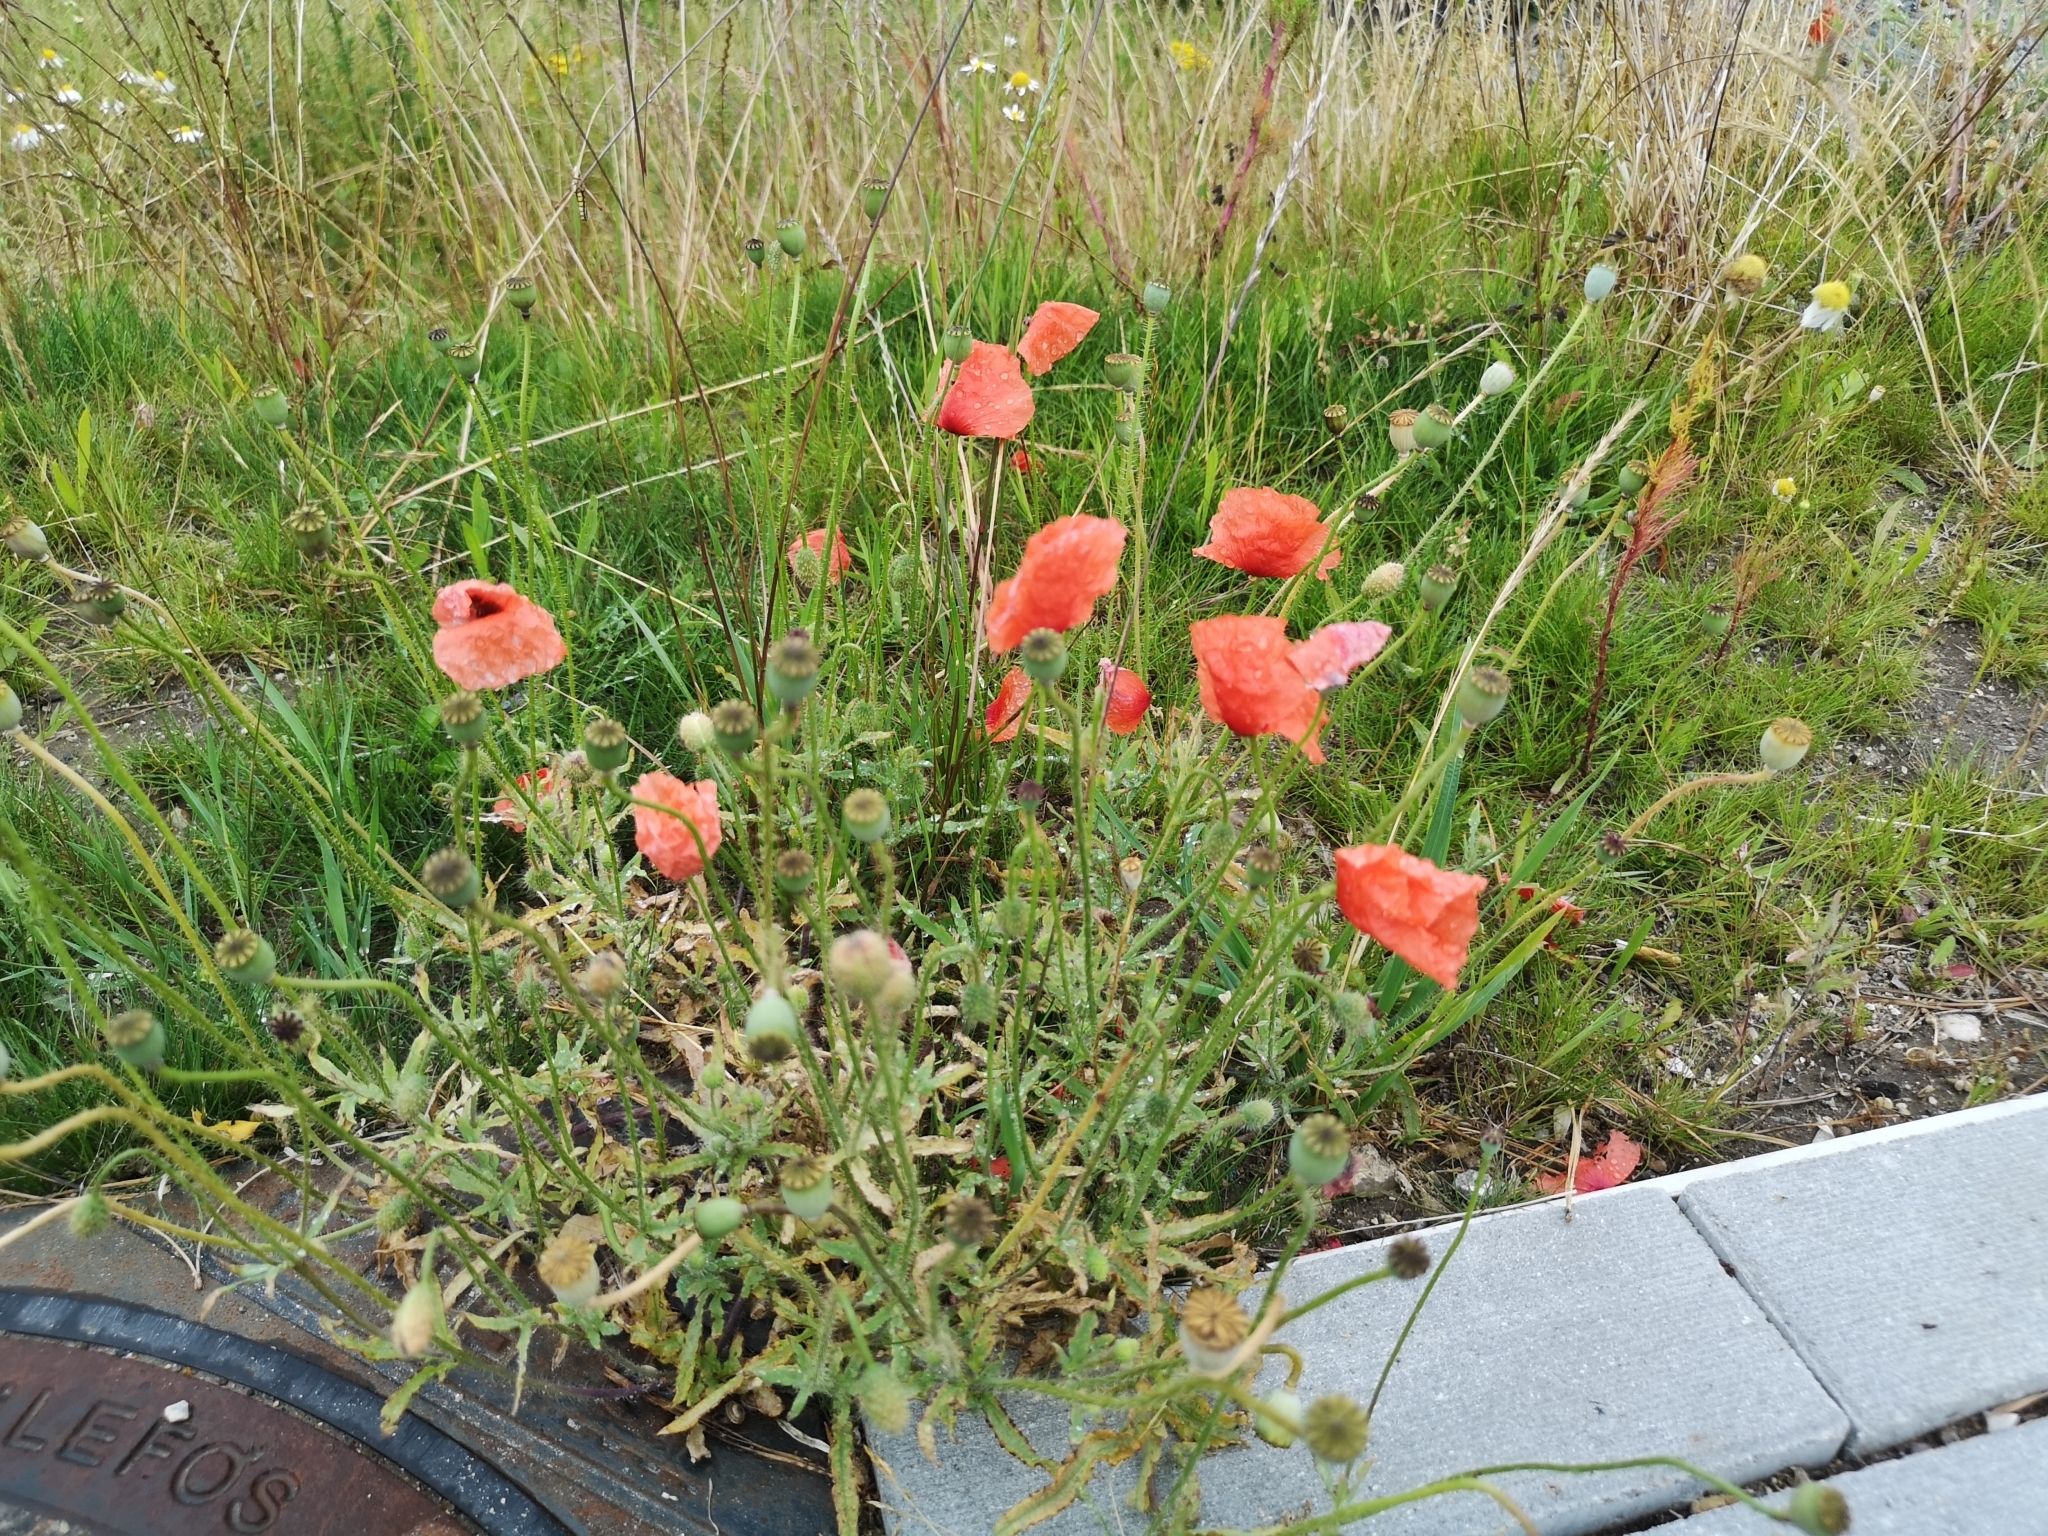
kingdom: Plantae
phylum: Tracheophyta
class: Magnoliopsida
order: Ranunculales
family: Papaveraceae
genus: Papaver
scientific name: Papaver rhoeas
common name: Corn poppy
